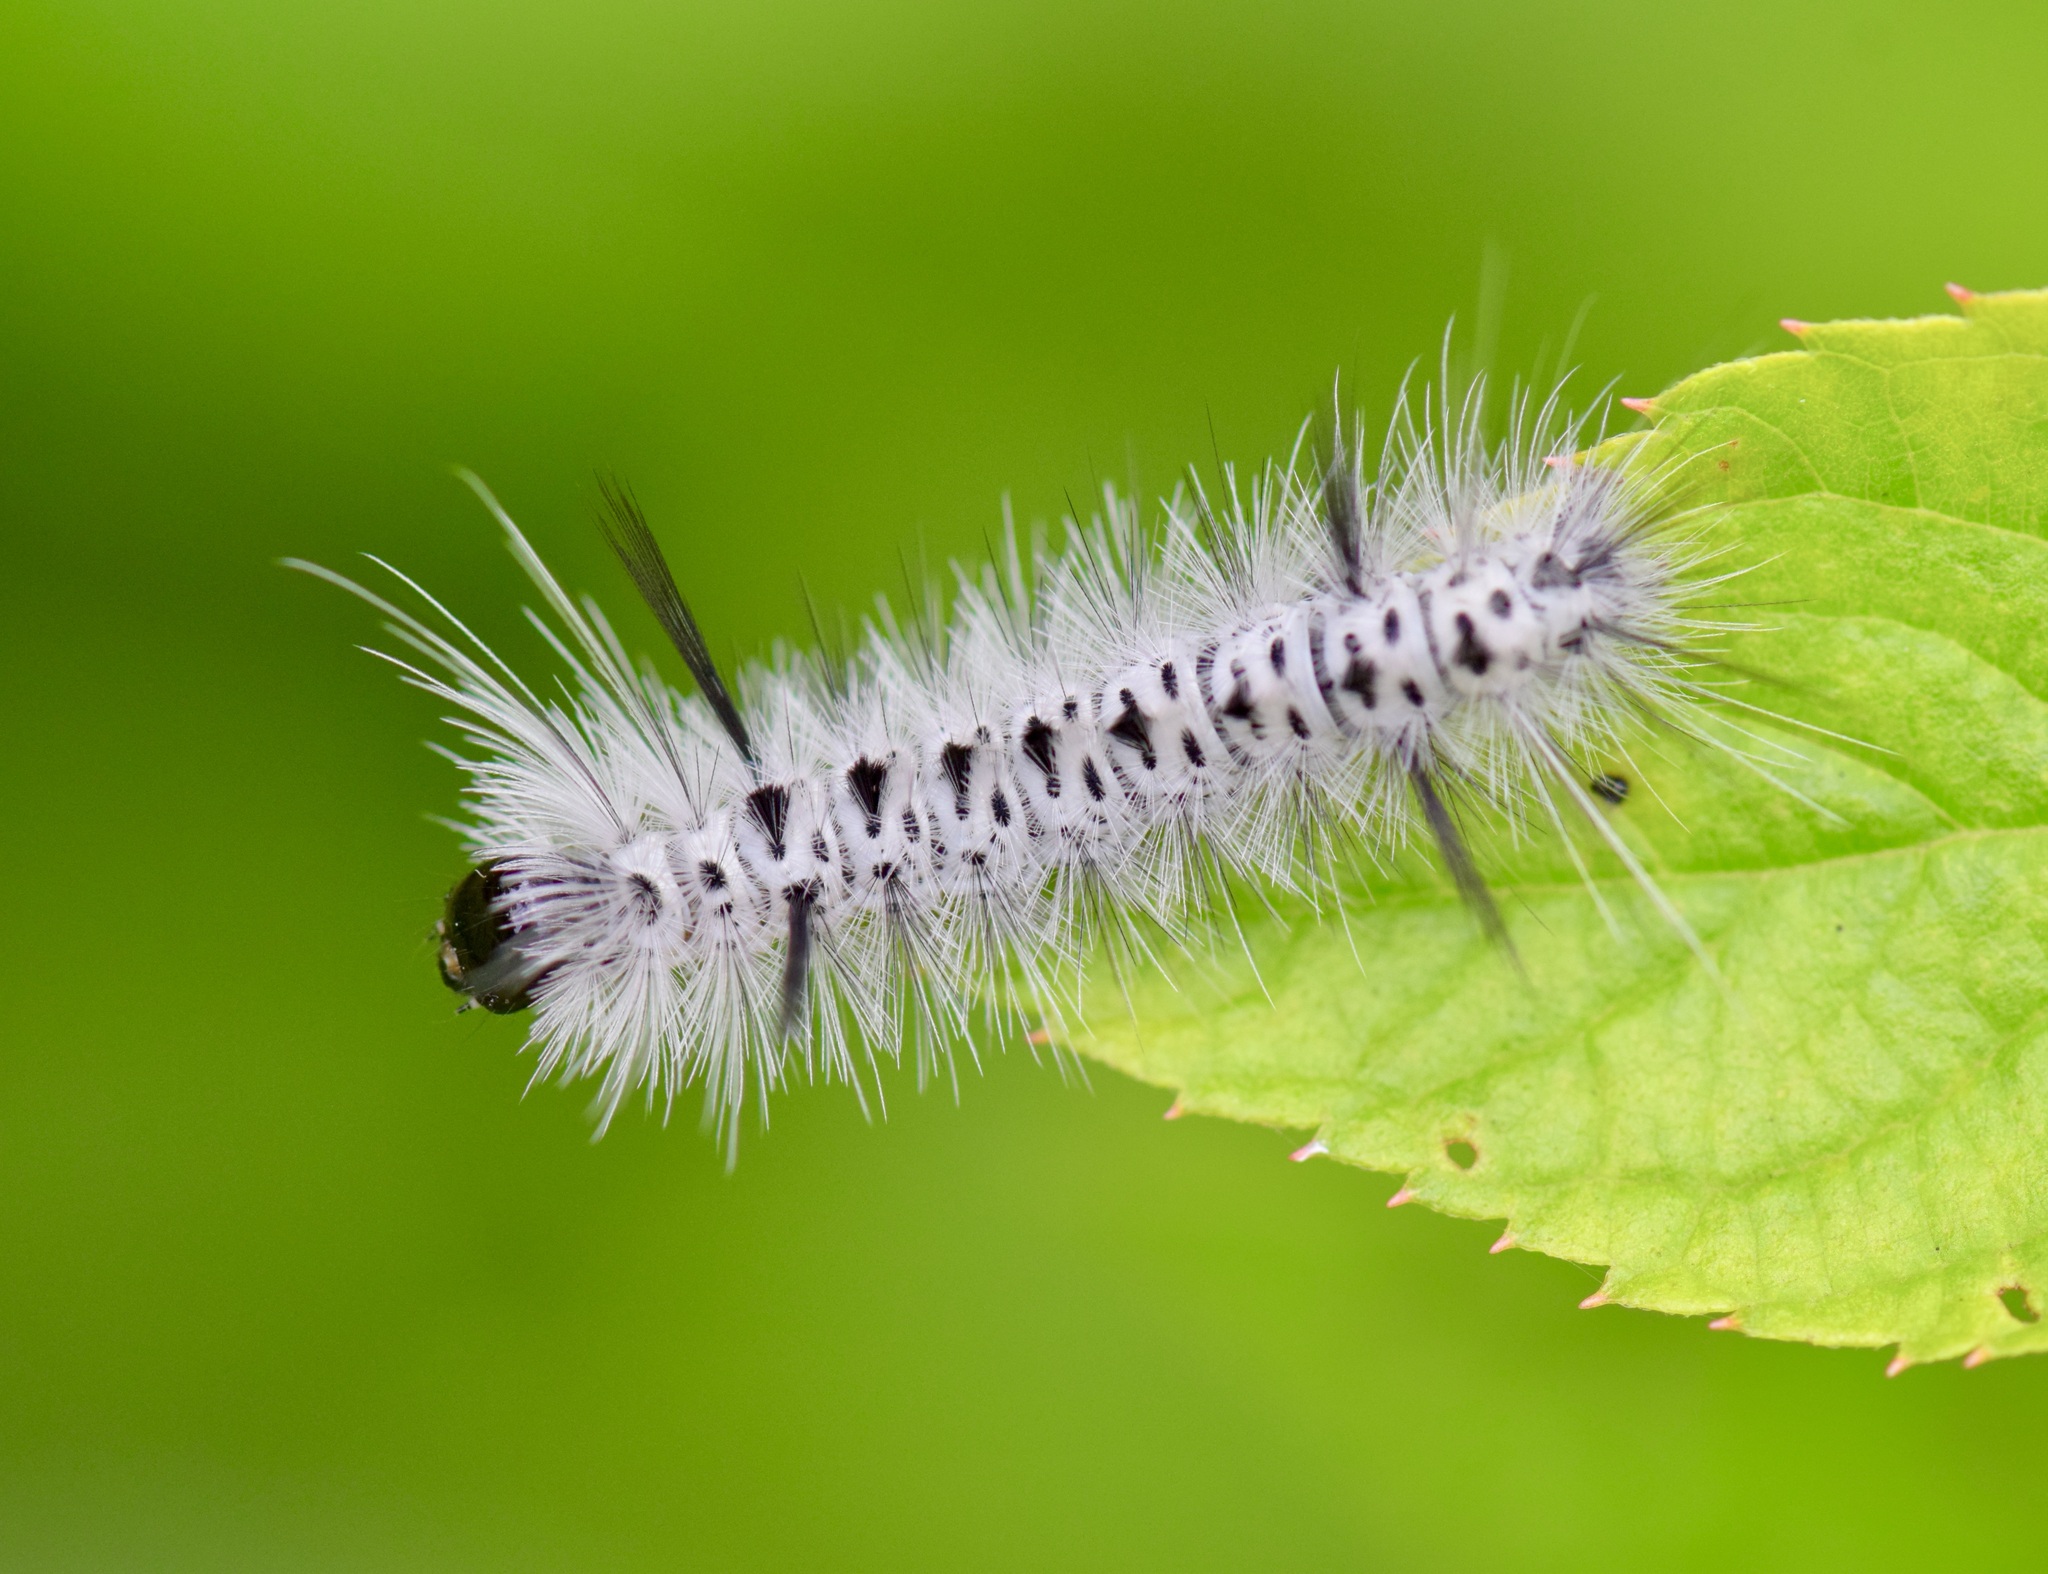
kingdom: Animalia
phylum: Arthropoda
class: Insecta
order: Lepidoptera
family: Erebidae
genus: Lophocampa
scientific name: Lophocampa caryae
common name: Hickory tussock moth
